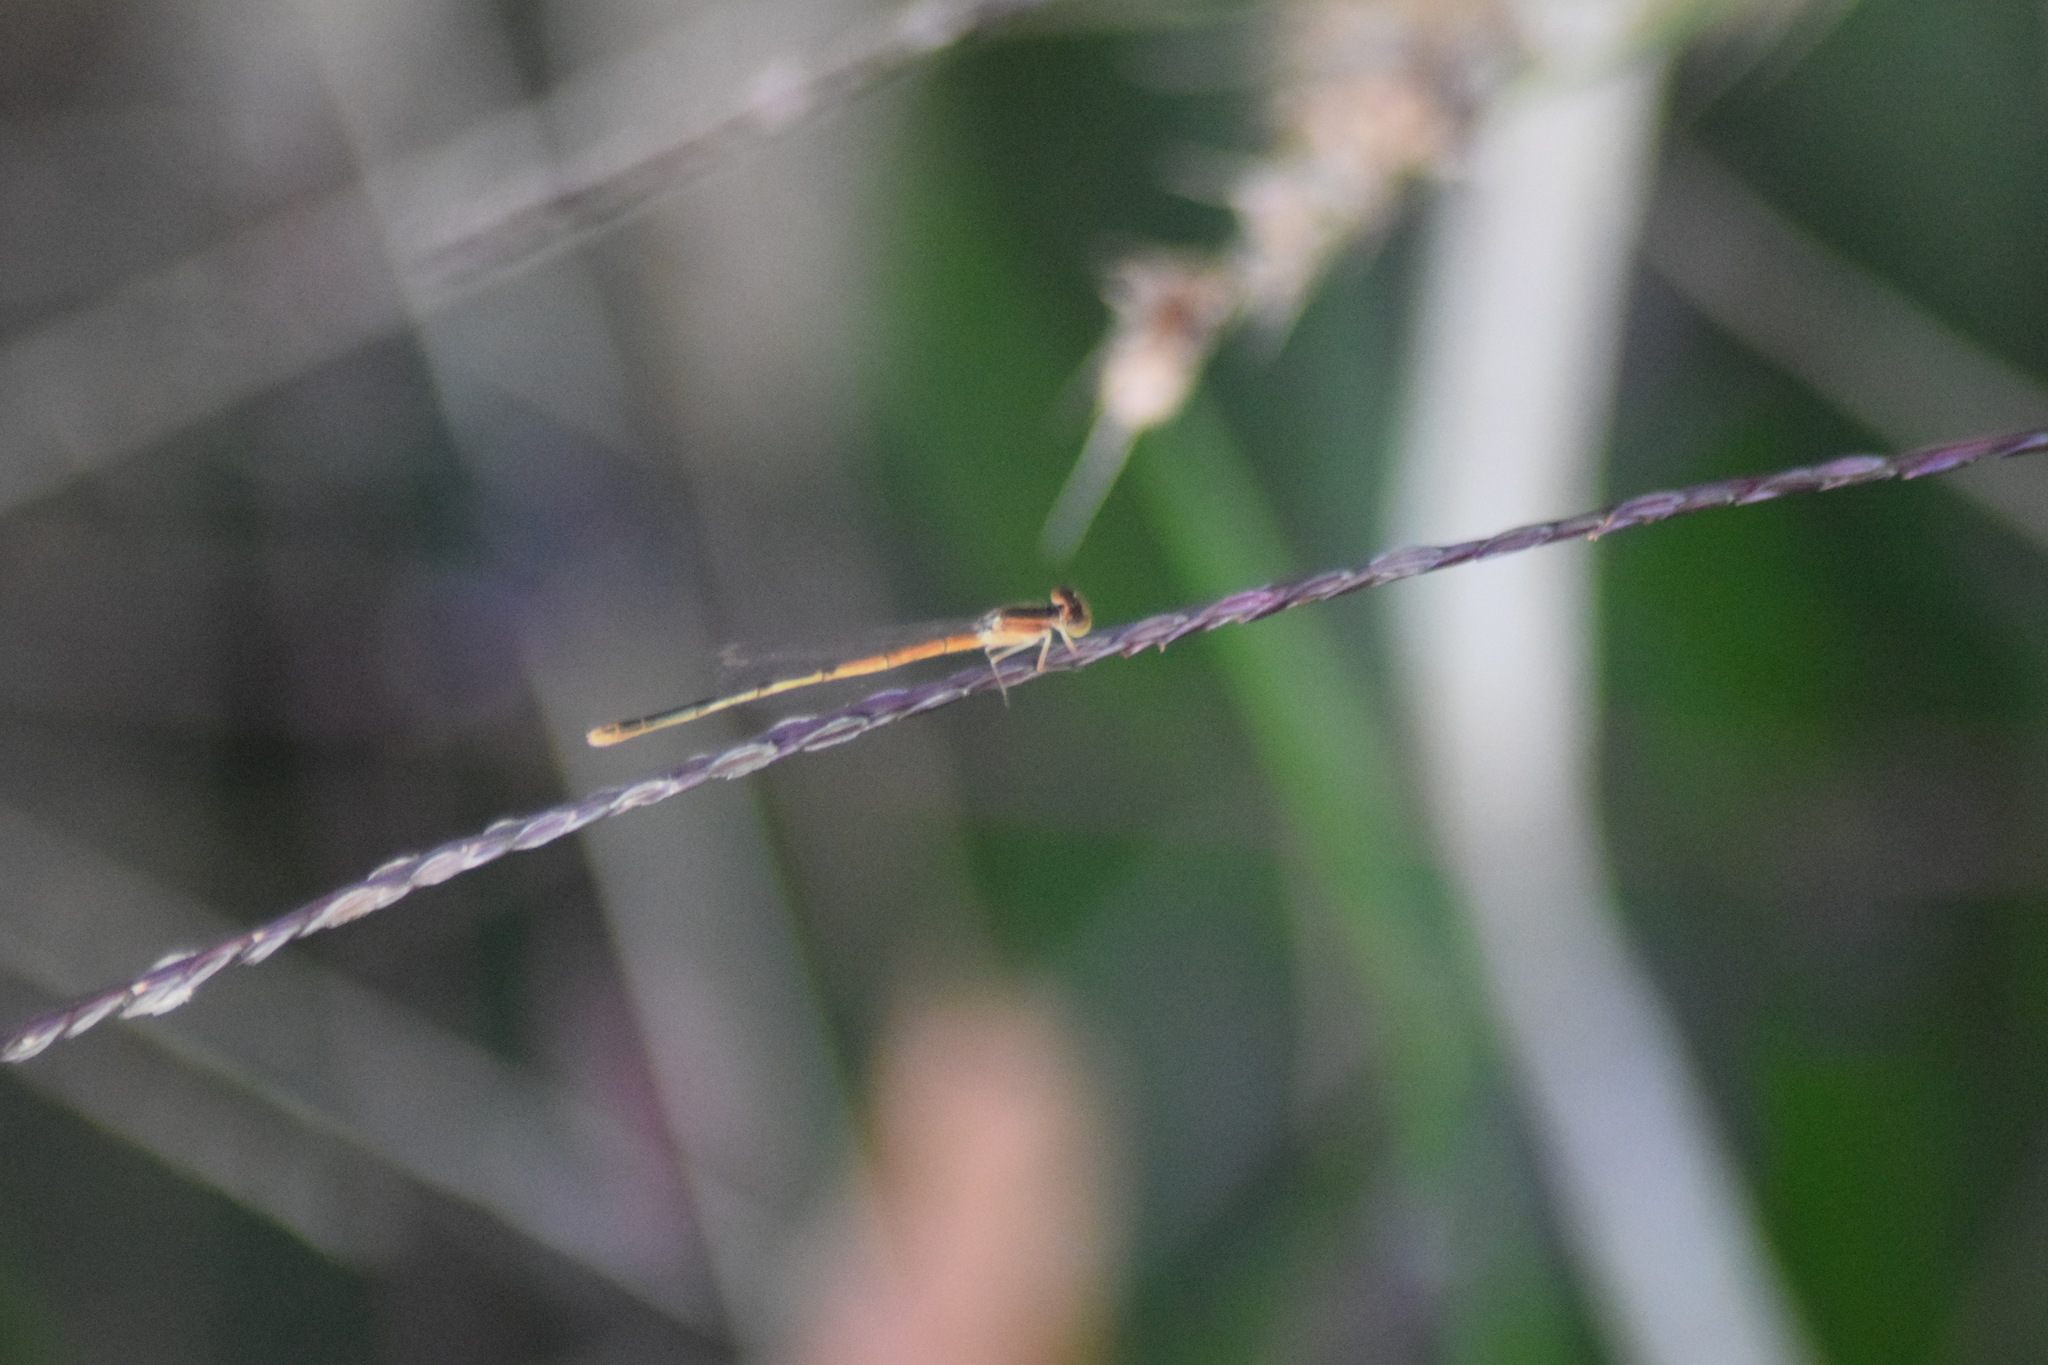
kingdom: Animalia
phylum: Arthropoda
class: Insecta
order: Odonata
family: Coenagrionidae
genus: Ischnura
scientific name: Ischnura hastata
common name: Citrine forktail
